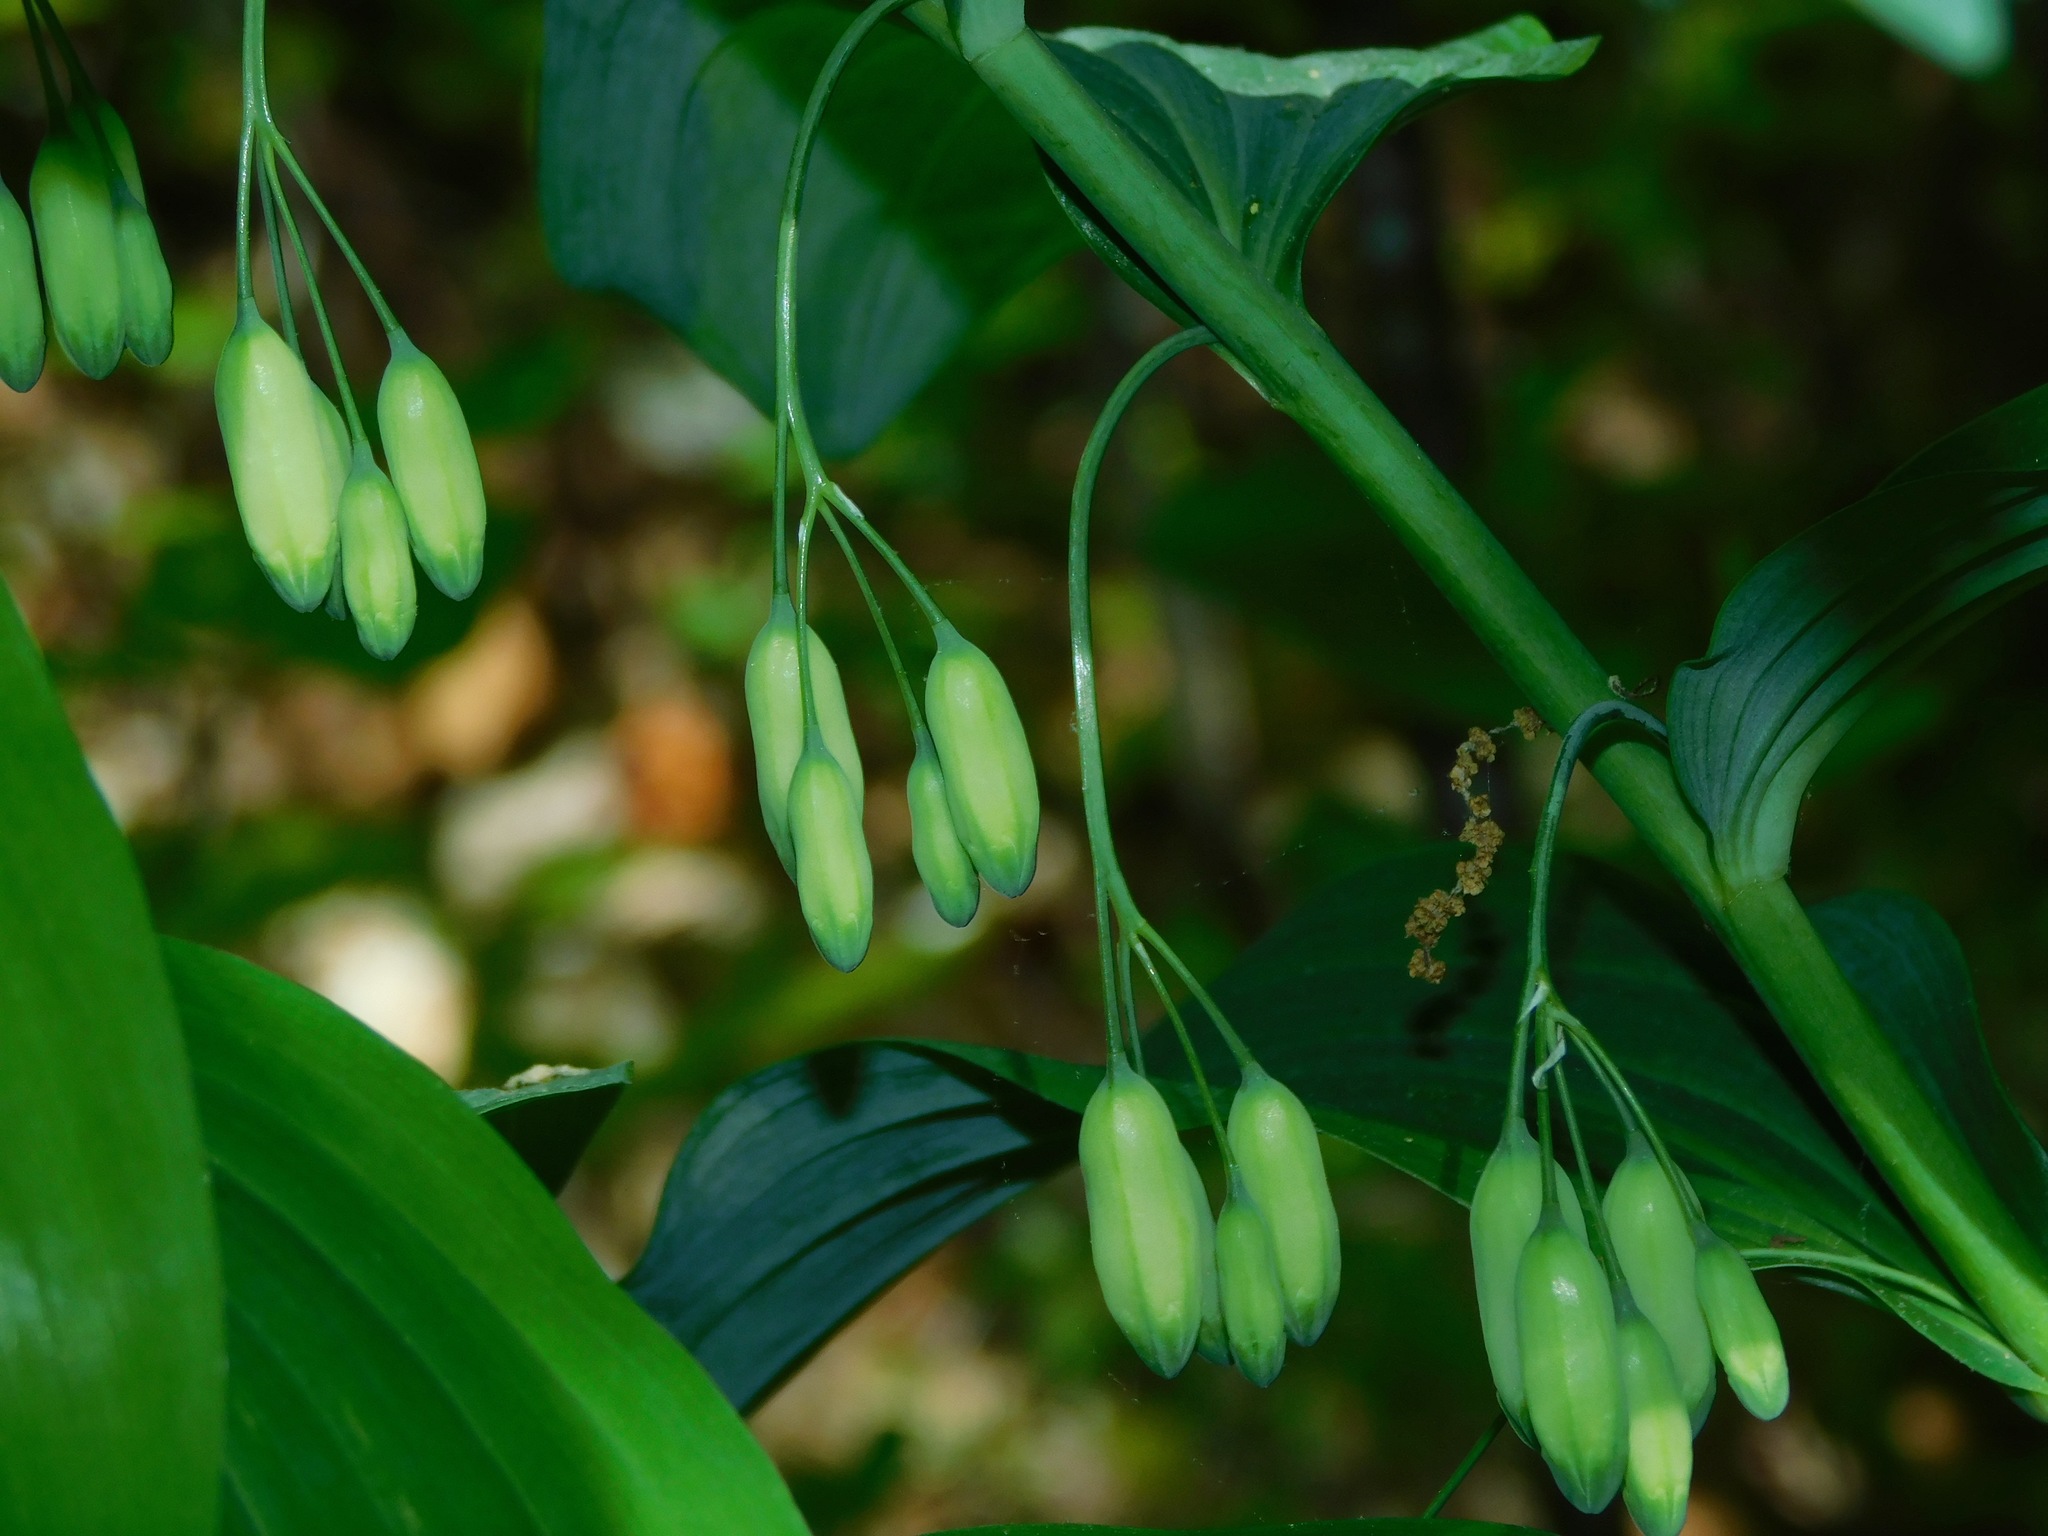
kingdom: Plantae
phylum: Tracheophyta
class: Liliopsida
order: Asparagales
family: Asparagaceae
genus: Polygonatum
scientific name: Polygonatum biflorum
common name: American solomon's-seal
